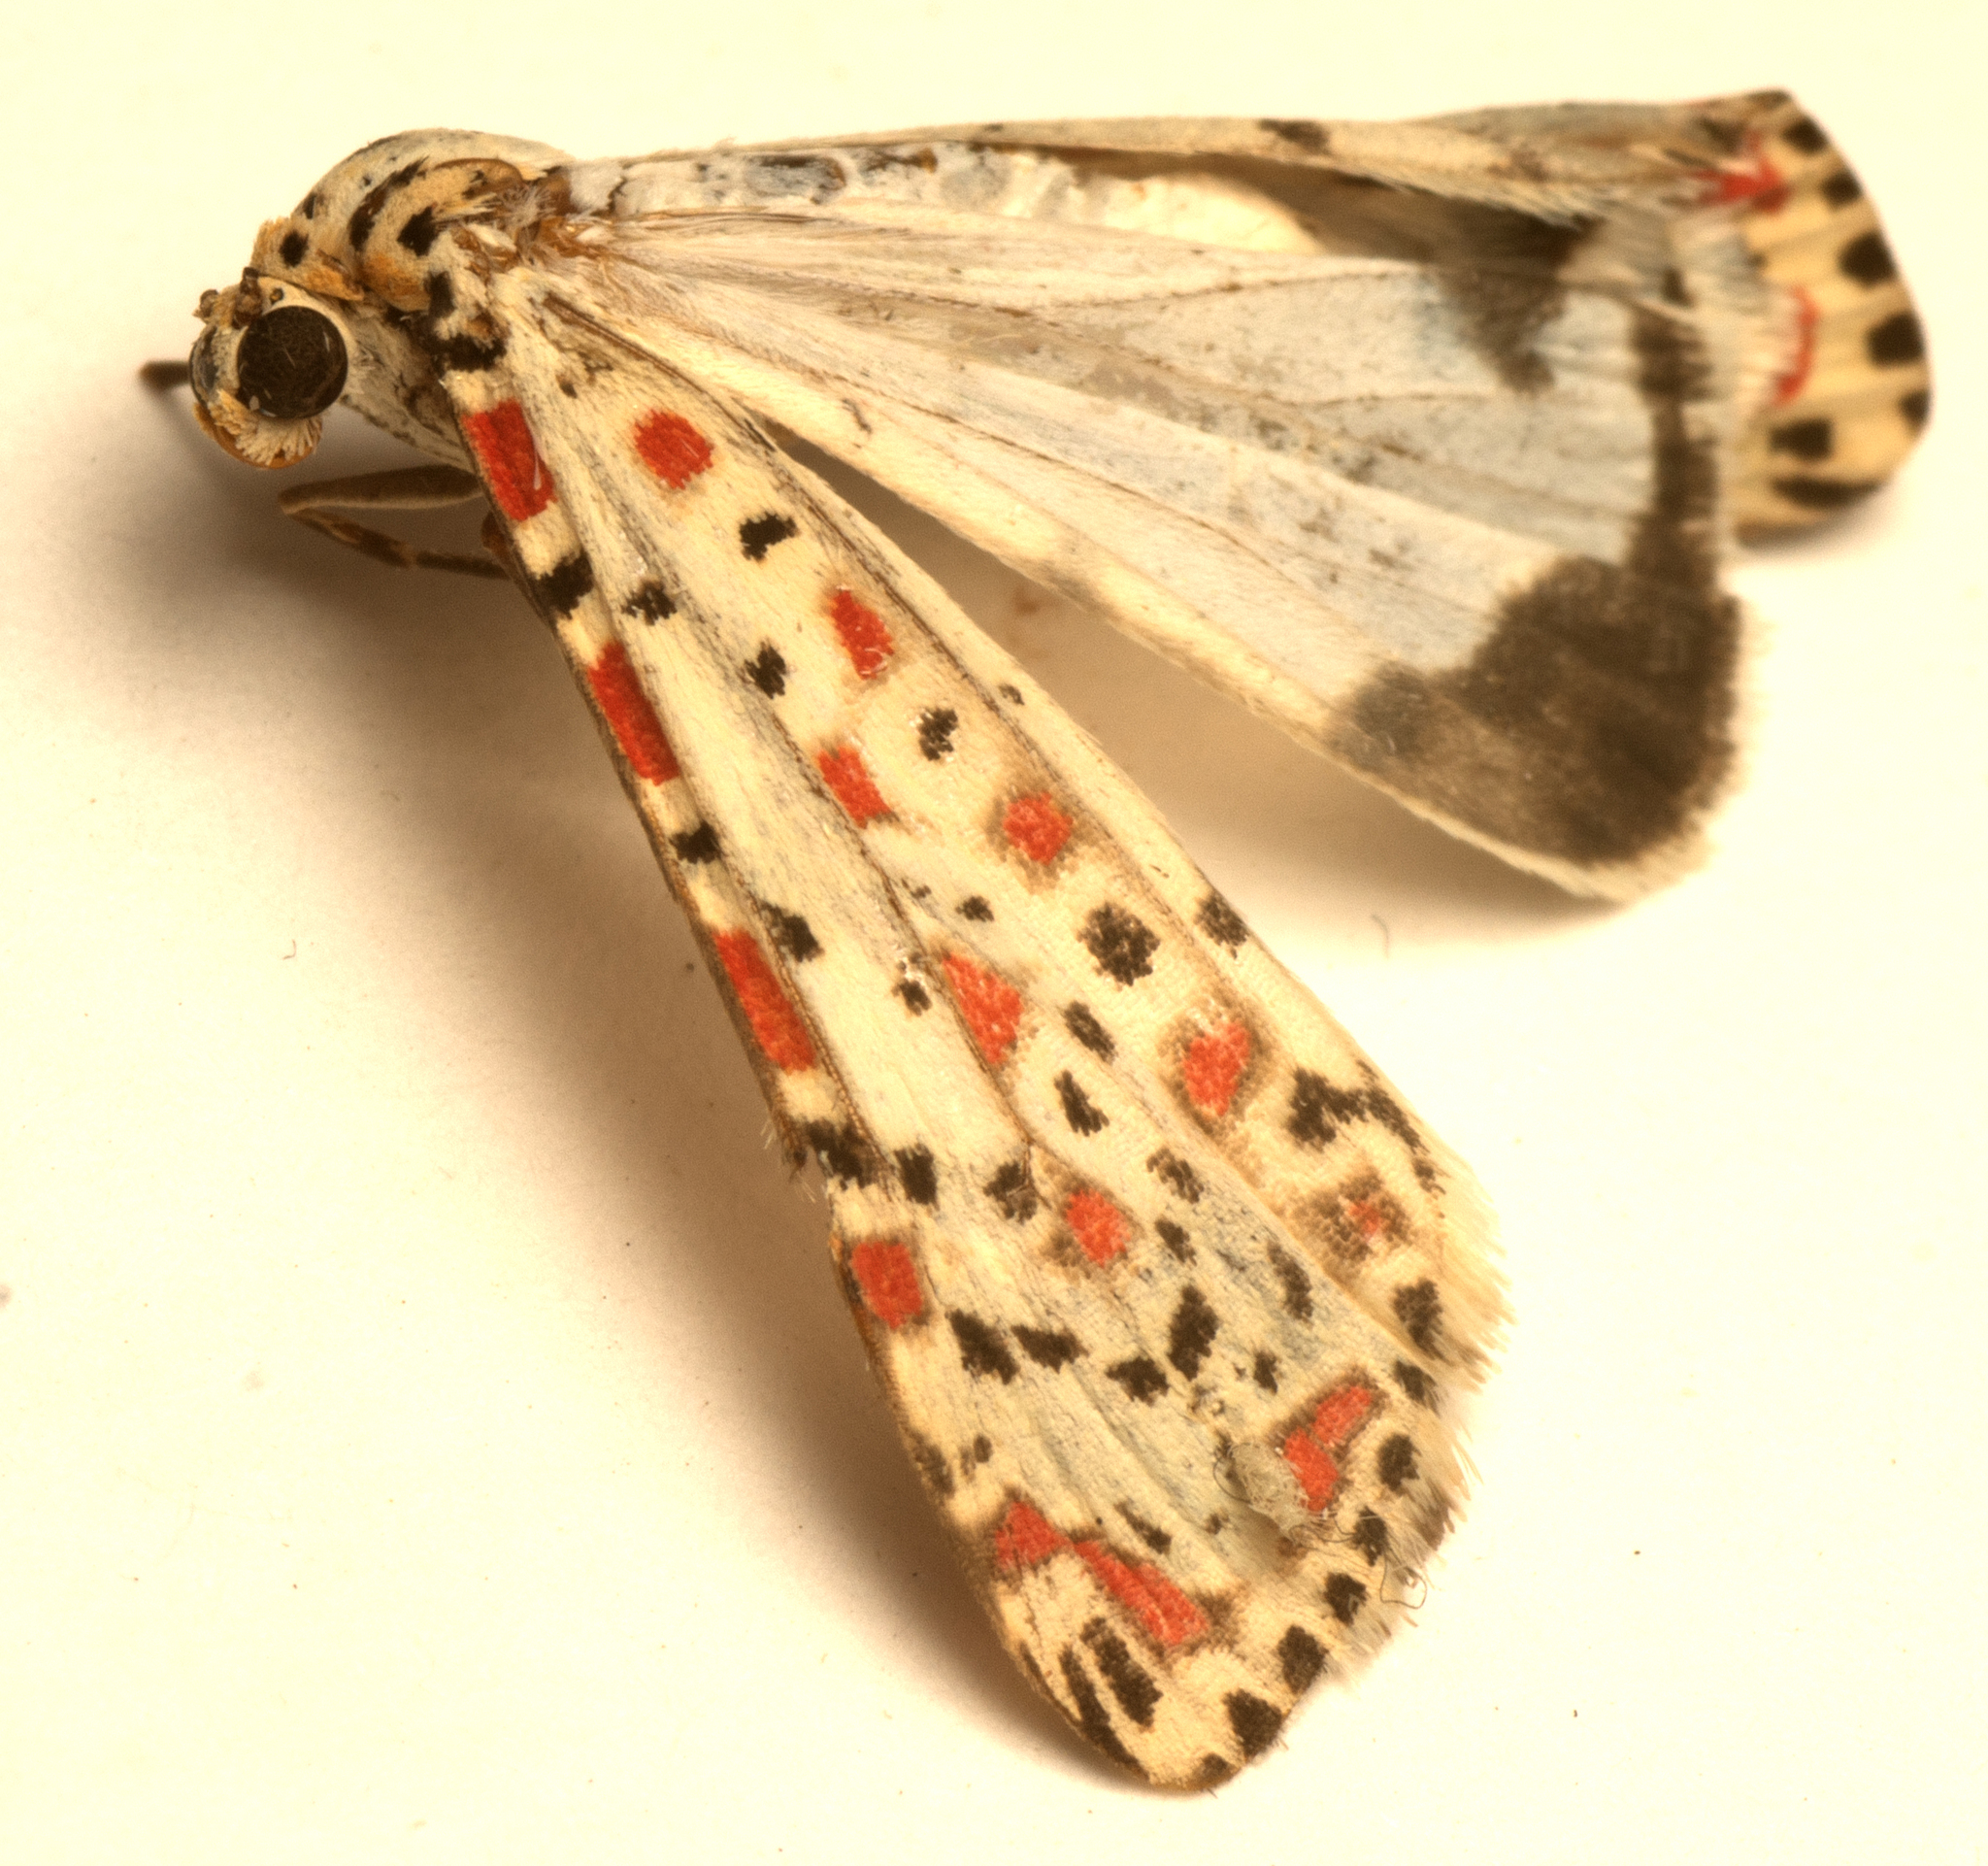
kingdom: Animalia
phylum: Arthropoda
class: Insecta
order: Lepidoptera
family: Erebidae
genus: Utetheisa
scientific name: Utetheisa pulchelloides
